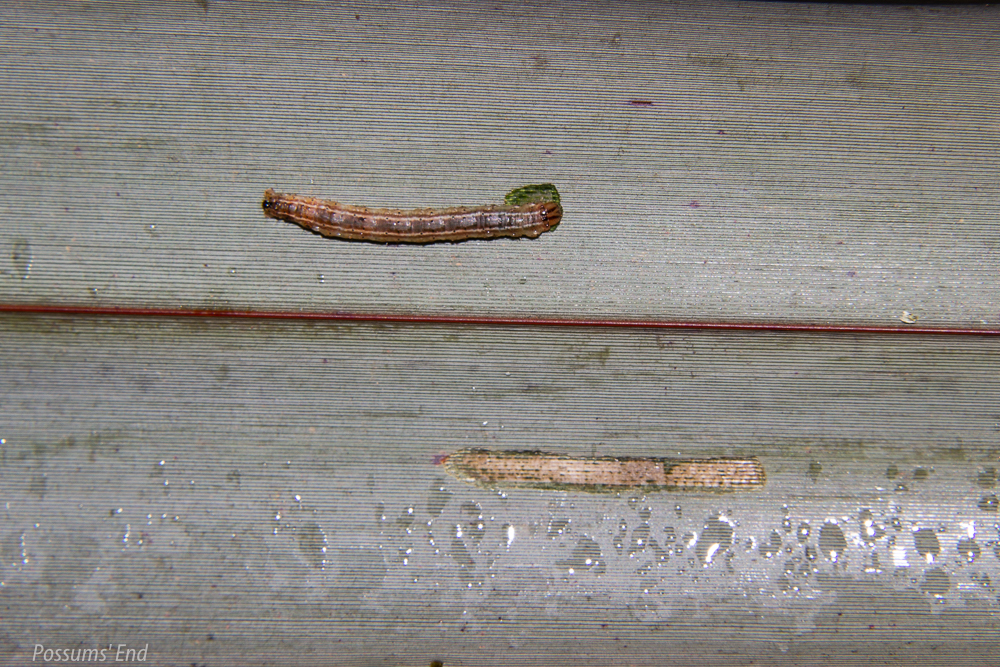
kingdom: Animalia
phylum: Arthropoda
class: Insecta
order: Lepidoptera
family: Geometridae
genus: Orthoclydon
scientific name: Orthoclydon praefectata
